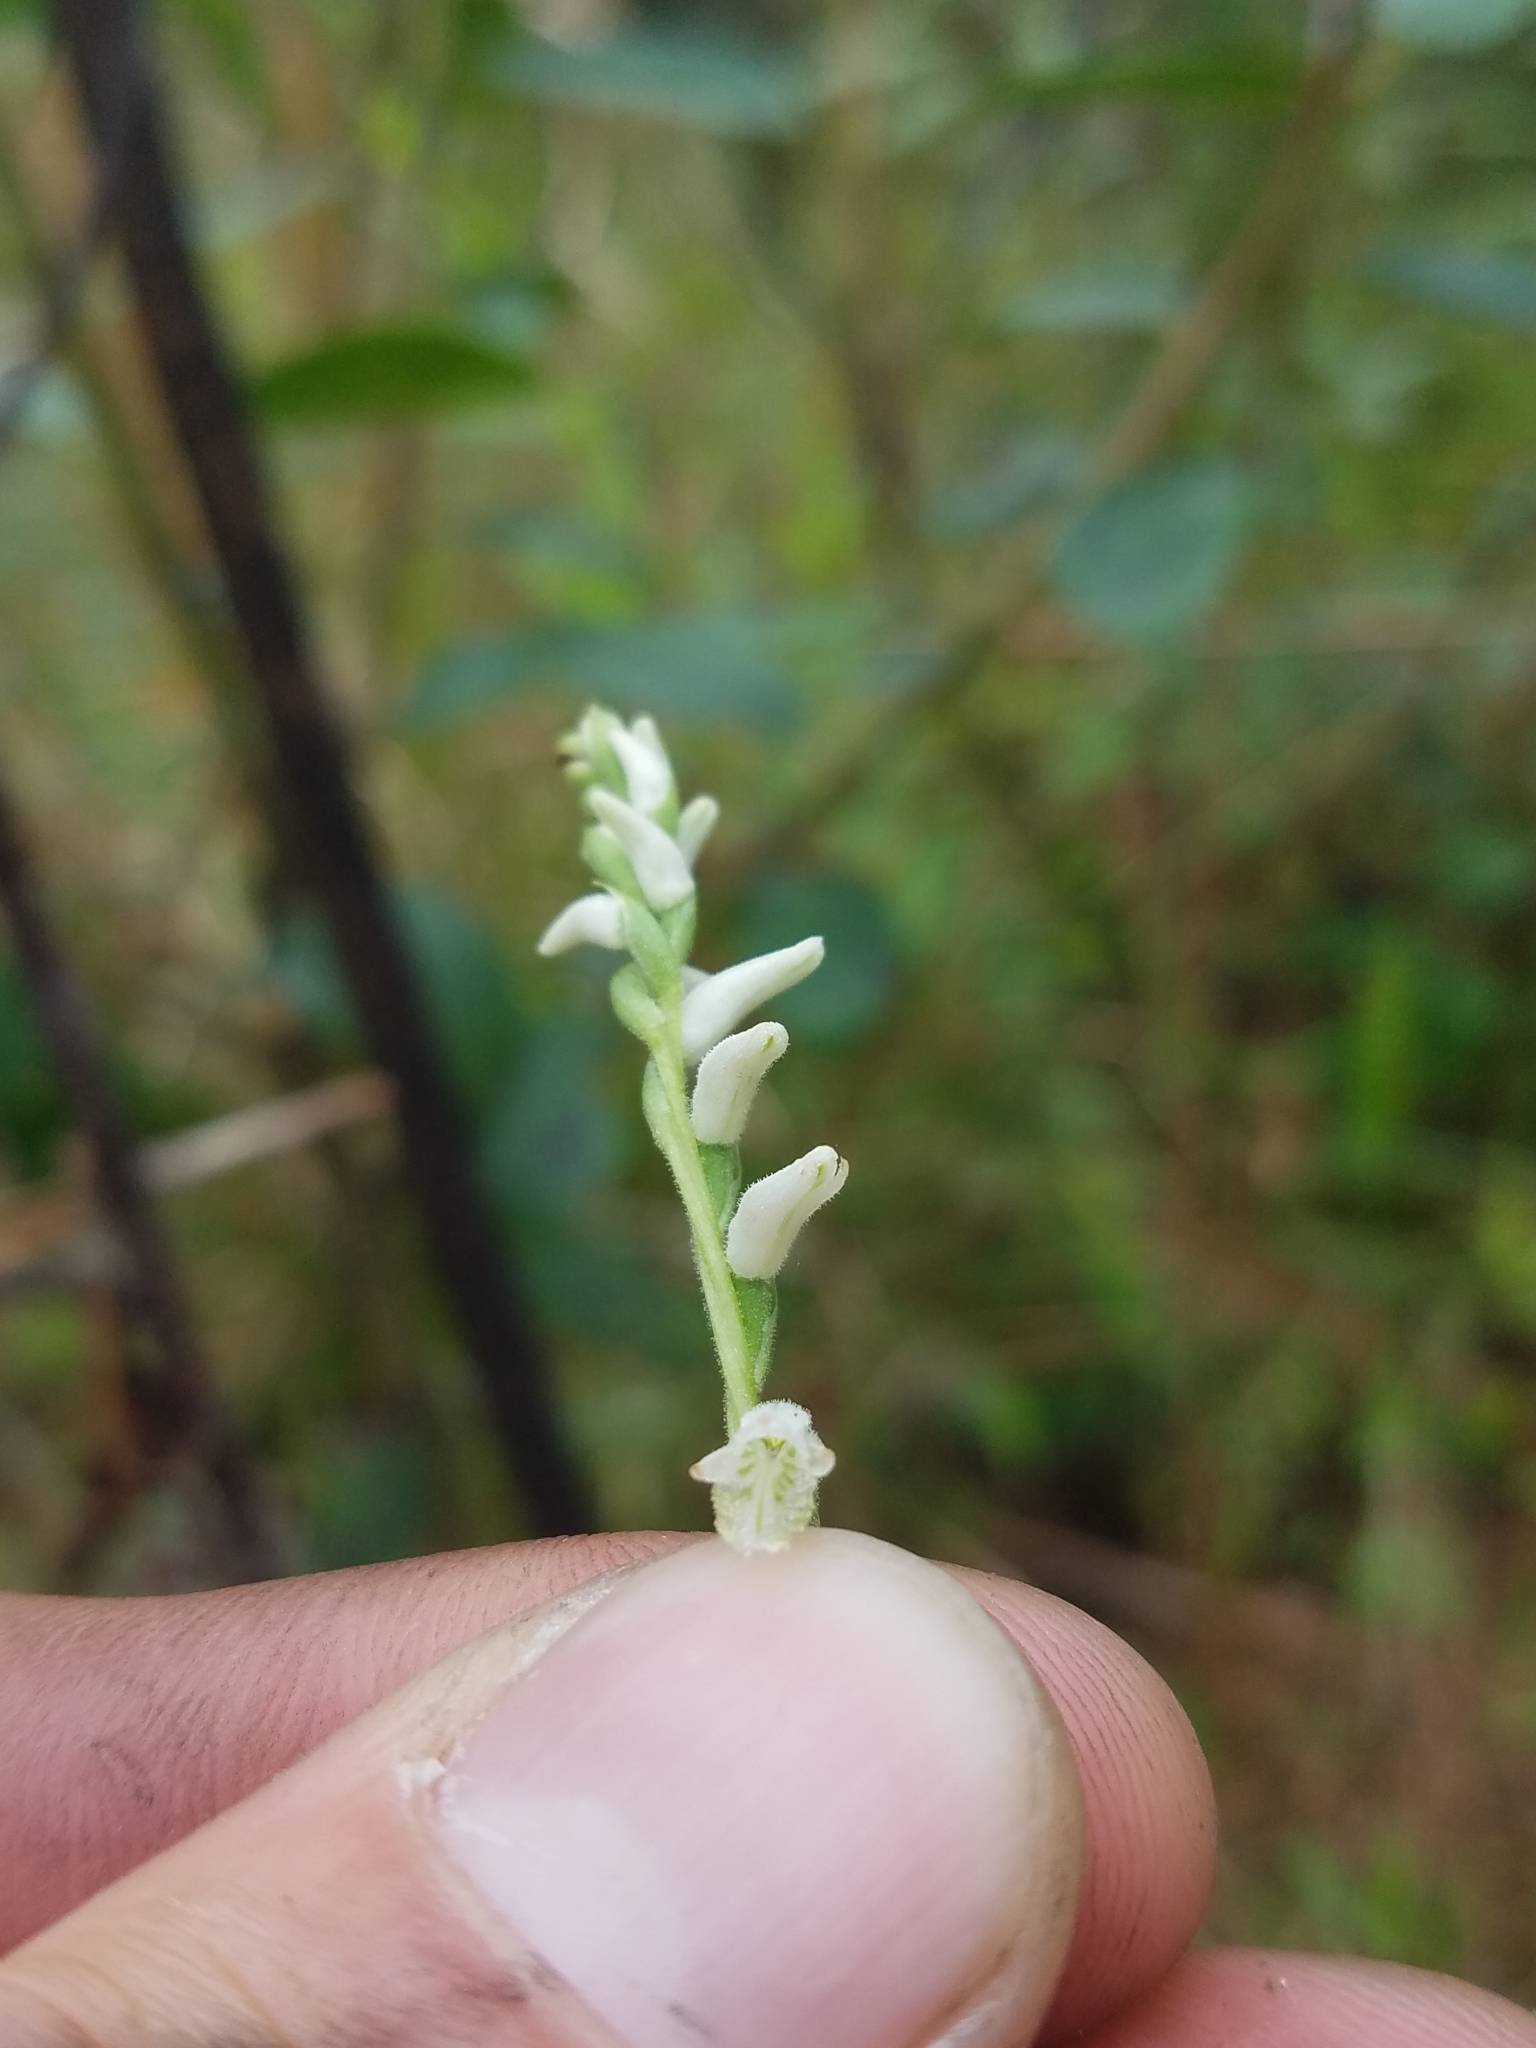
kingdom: Plantae
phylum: Tracheophyta
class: Liliopsida
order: Asparagales
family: Orchidaceae
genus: Spiranthes
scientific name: Spiranthes praecox
